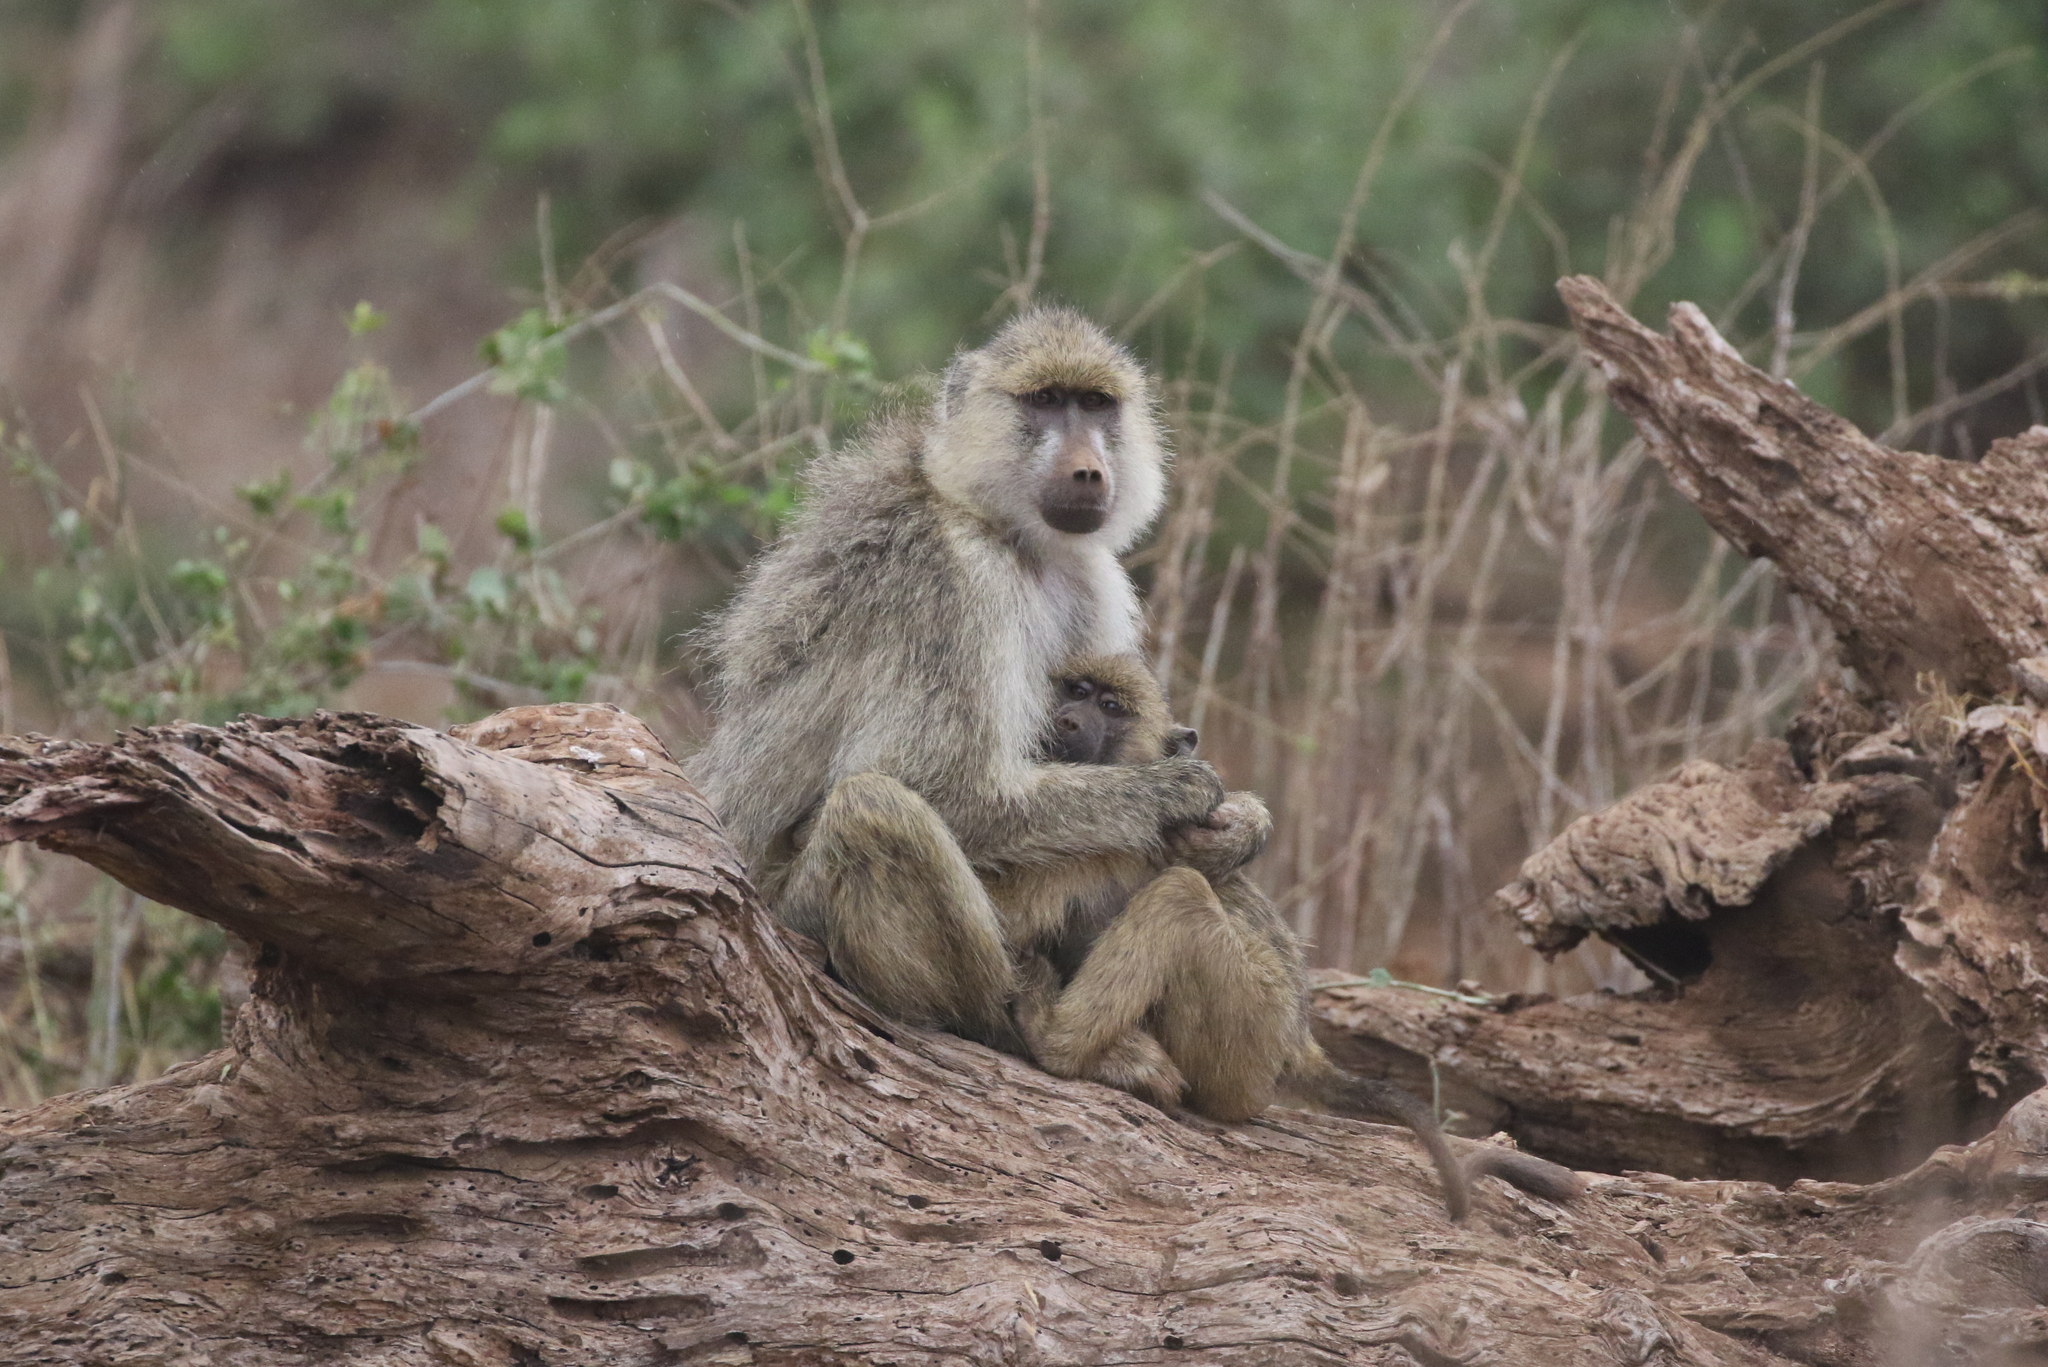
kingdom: Animalia
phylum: Chordata
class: Mammalia
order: Primates
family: Cercopithecidae
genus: Papio
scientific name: Papio cynocephalus
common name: Yellow baboon
